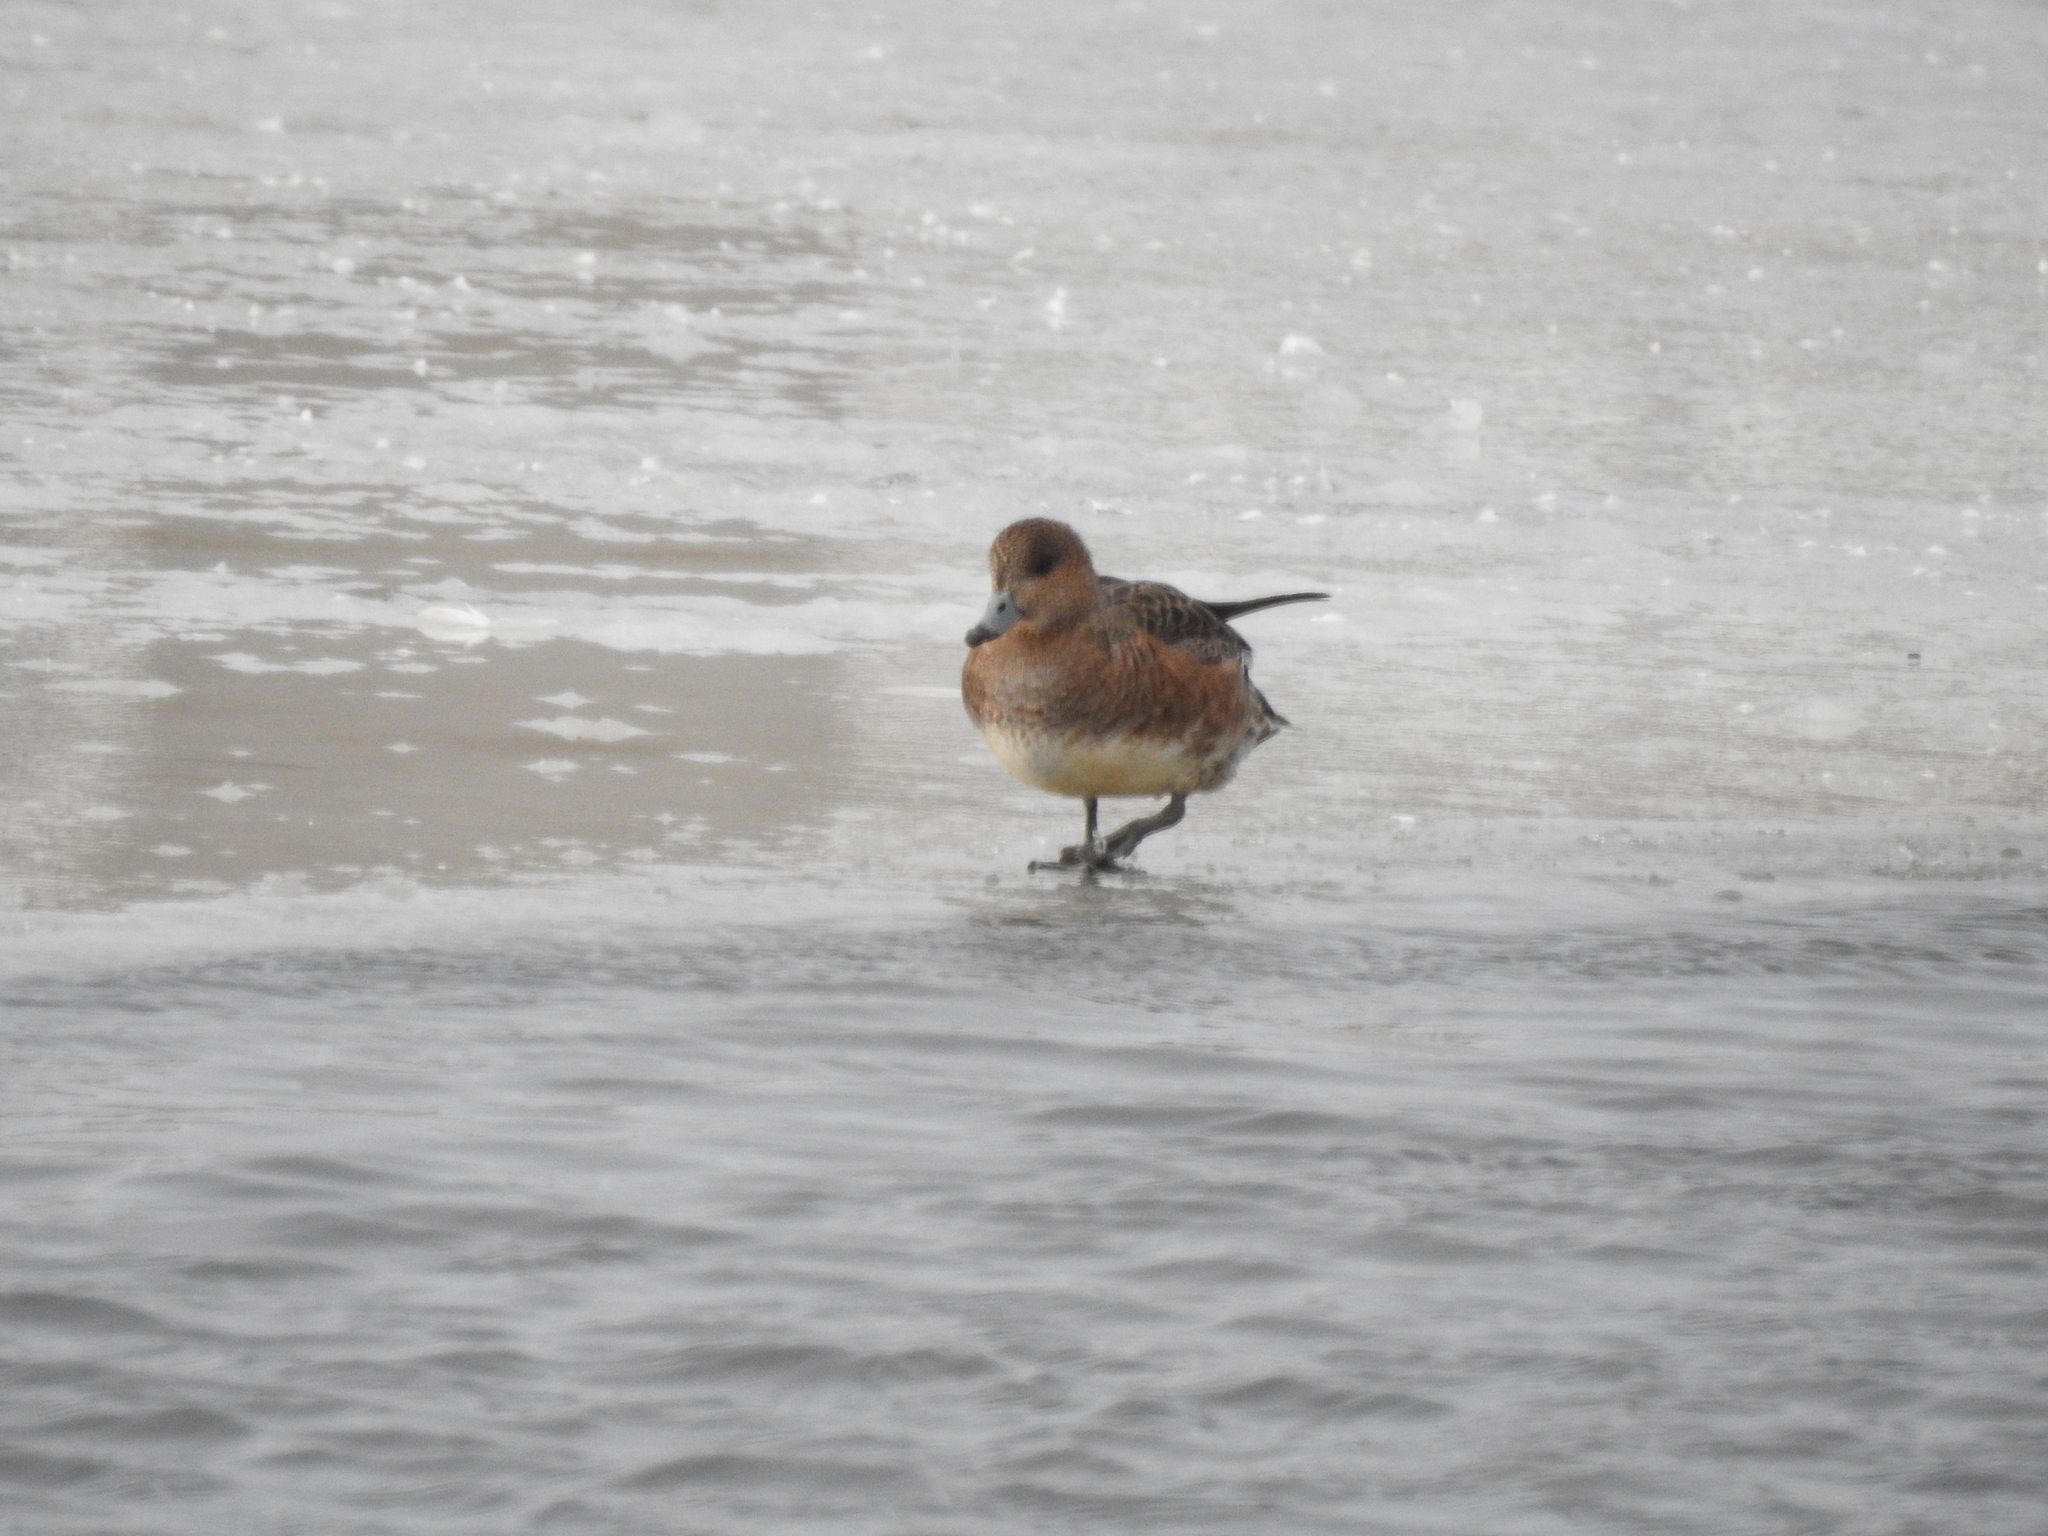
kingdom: Animalia
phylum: Chordata
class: Aves
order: Anseriformes
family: Anatidae
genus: Mareca
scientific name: Mareca penelope
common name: Eurasian wigeon
